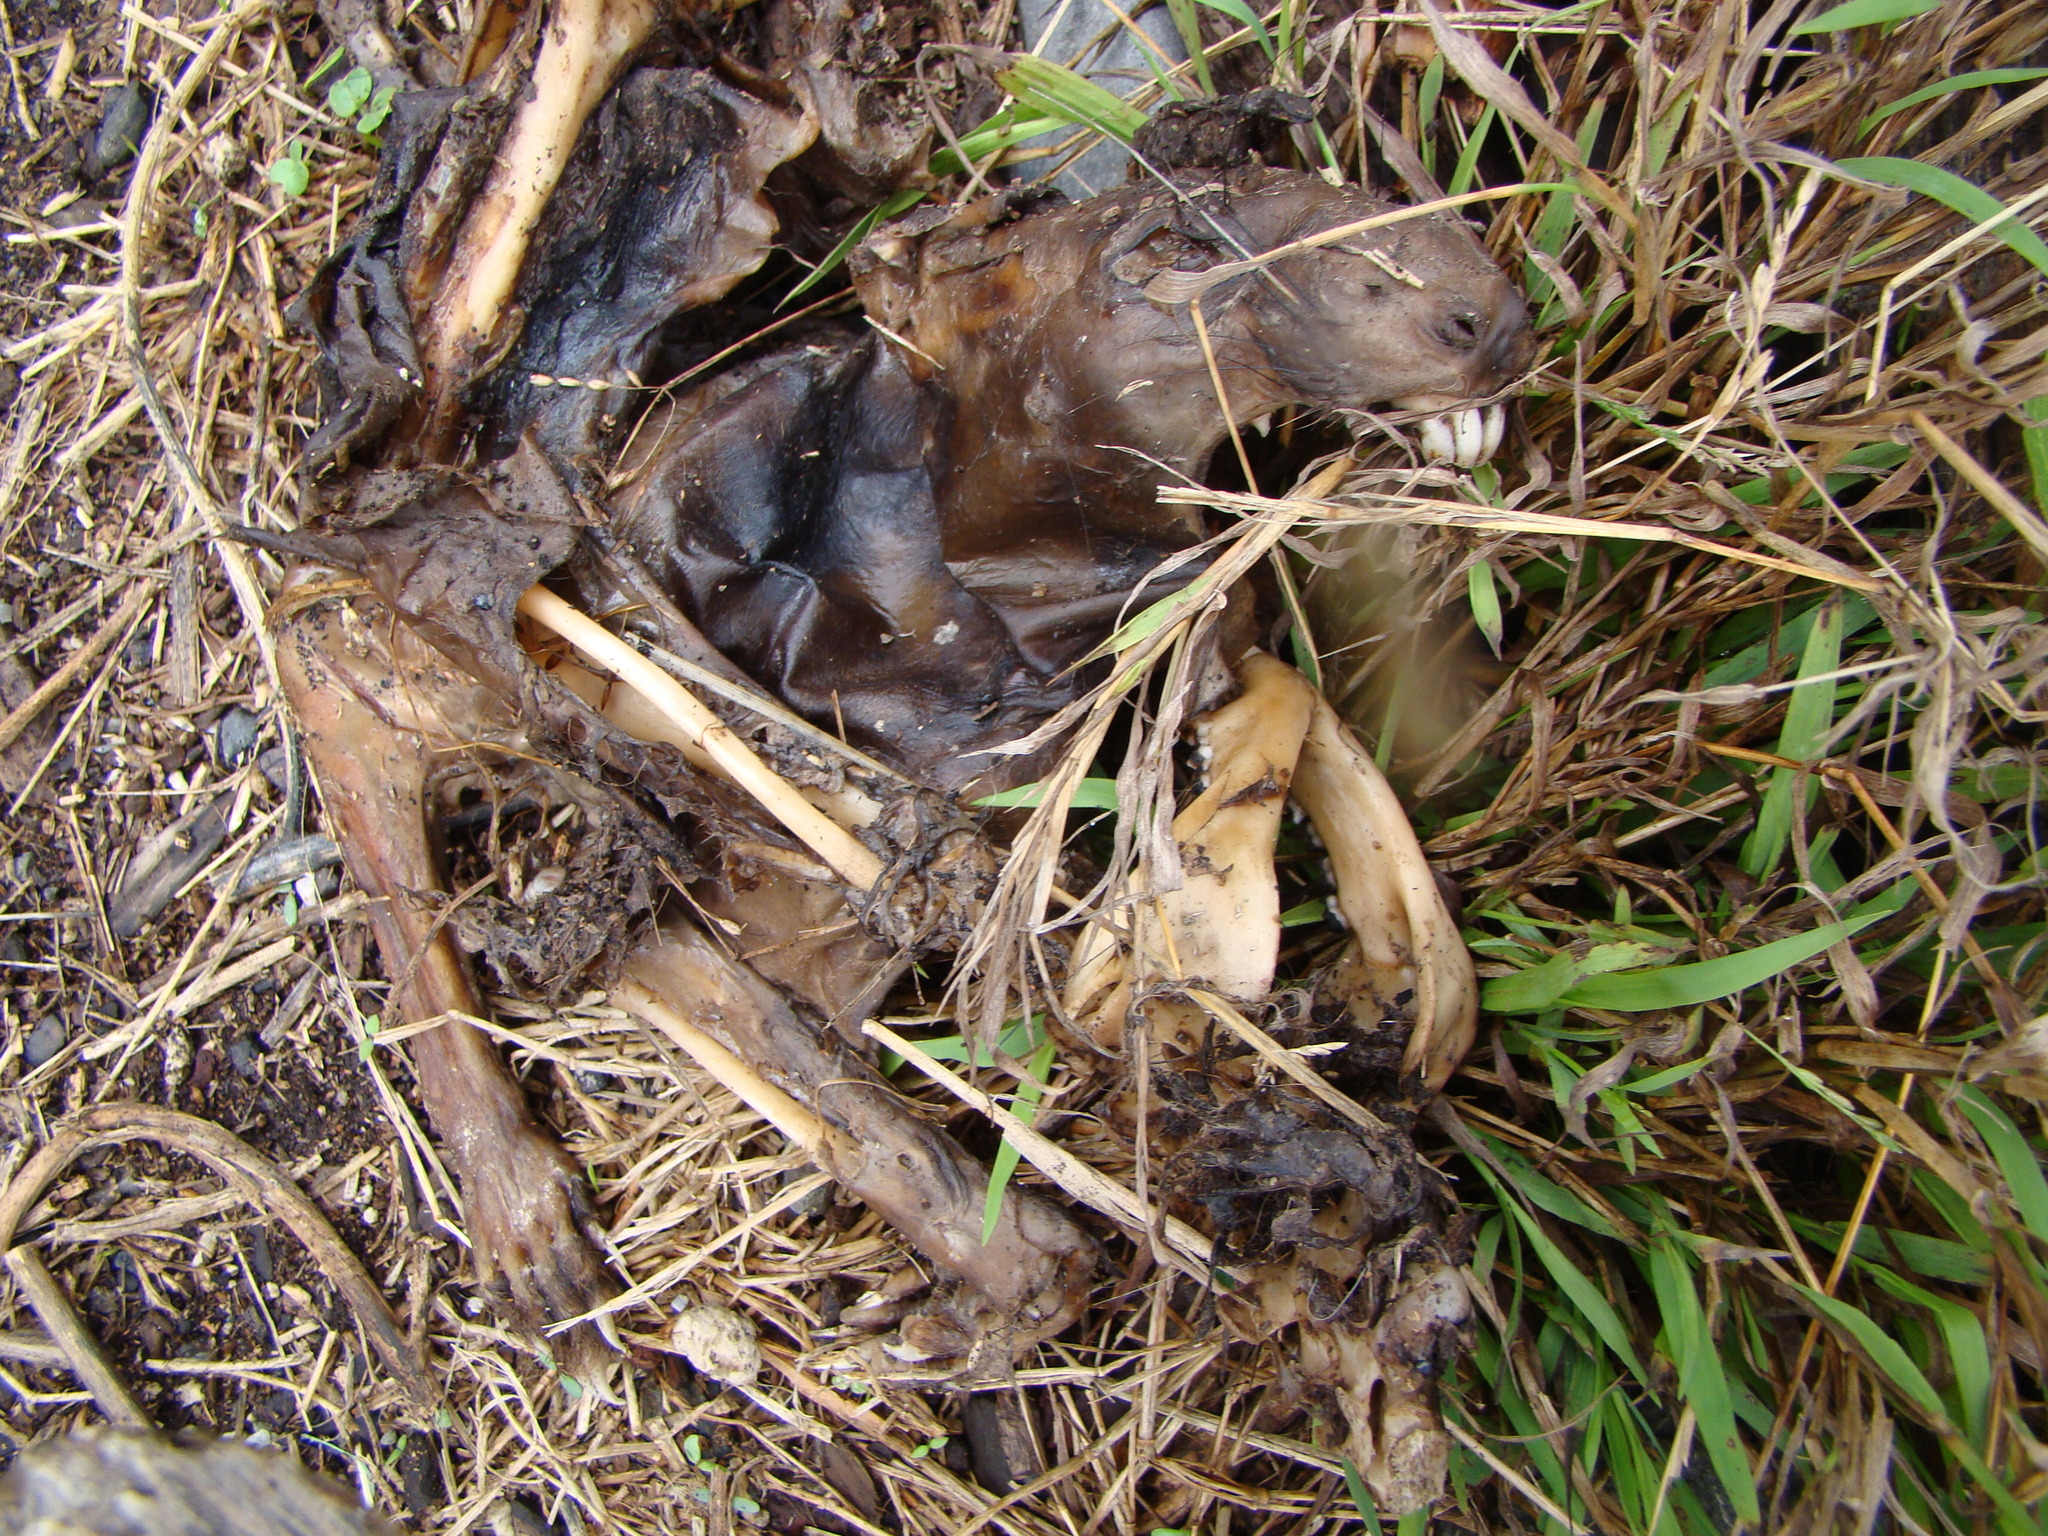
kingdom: Animalia
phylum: Chordata
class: Mammalia
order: Diprotodontia
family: Phalangeridae
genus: Trichosurus
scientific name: Trichosurus vulpecula
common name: Common brushtail
